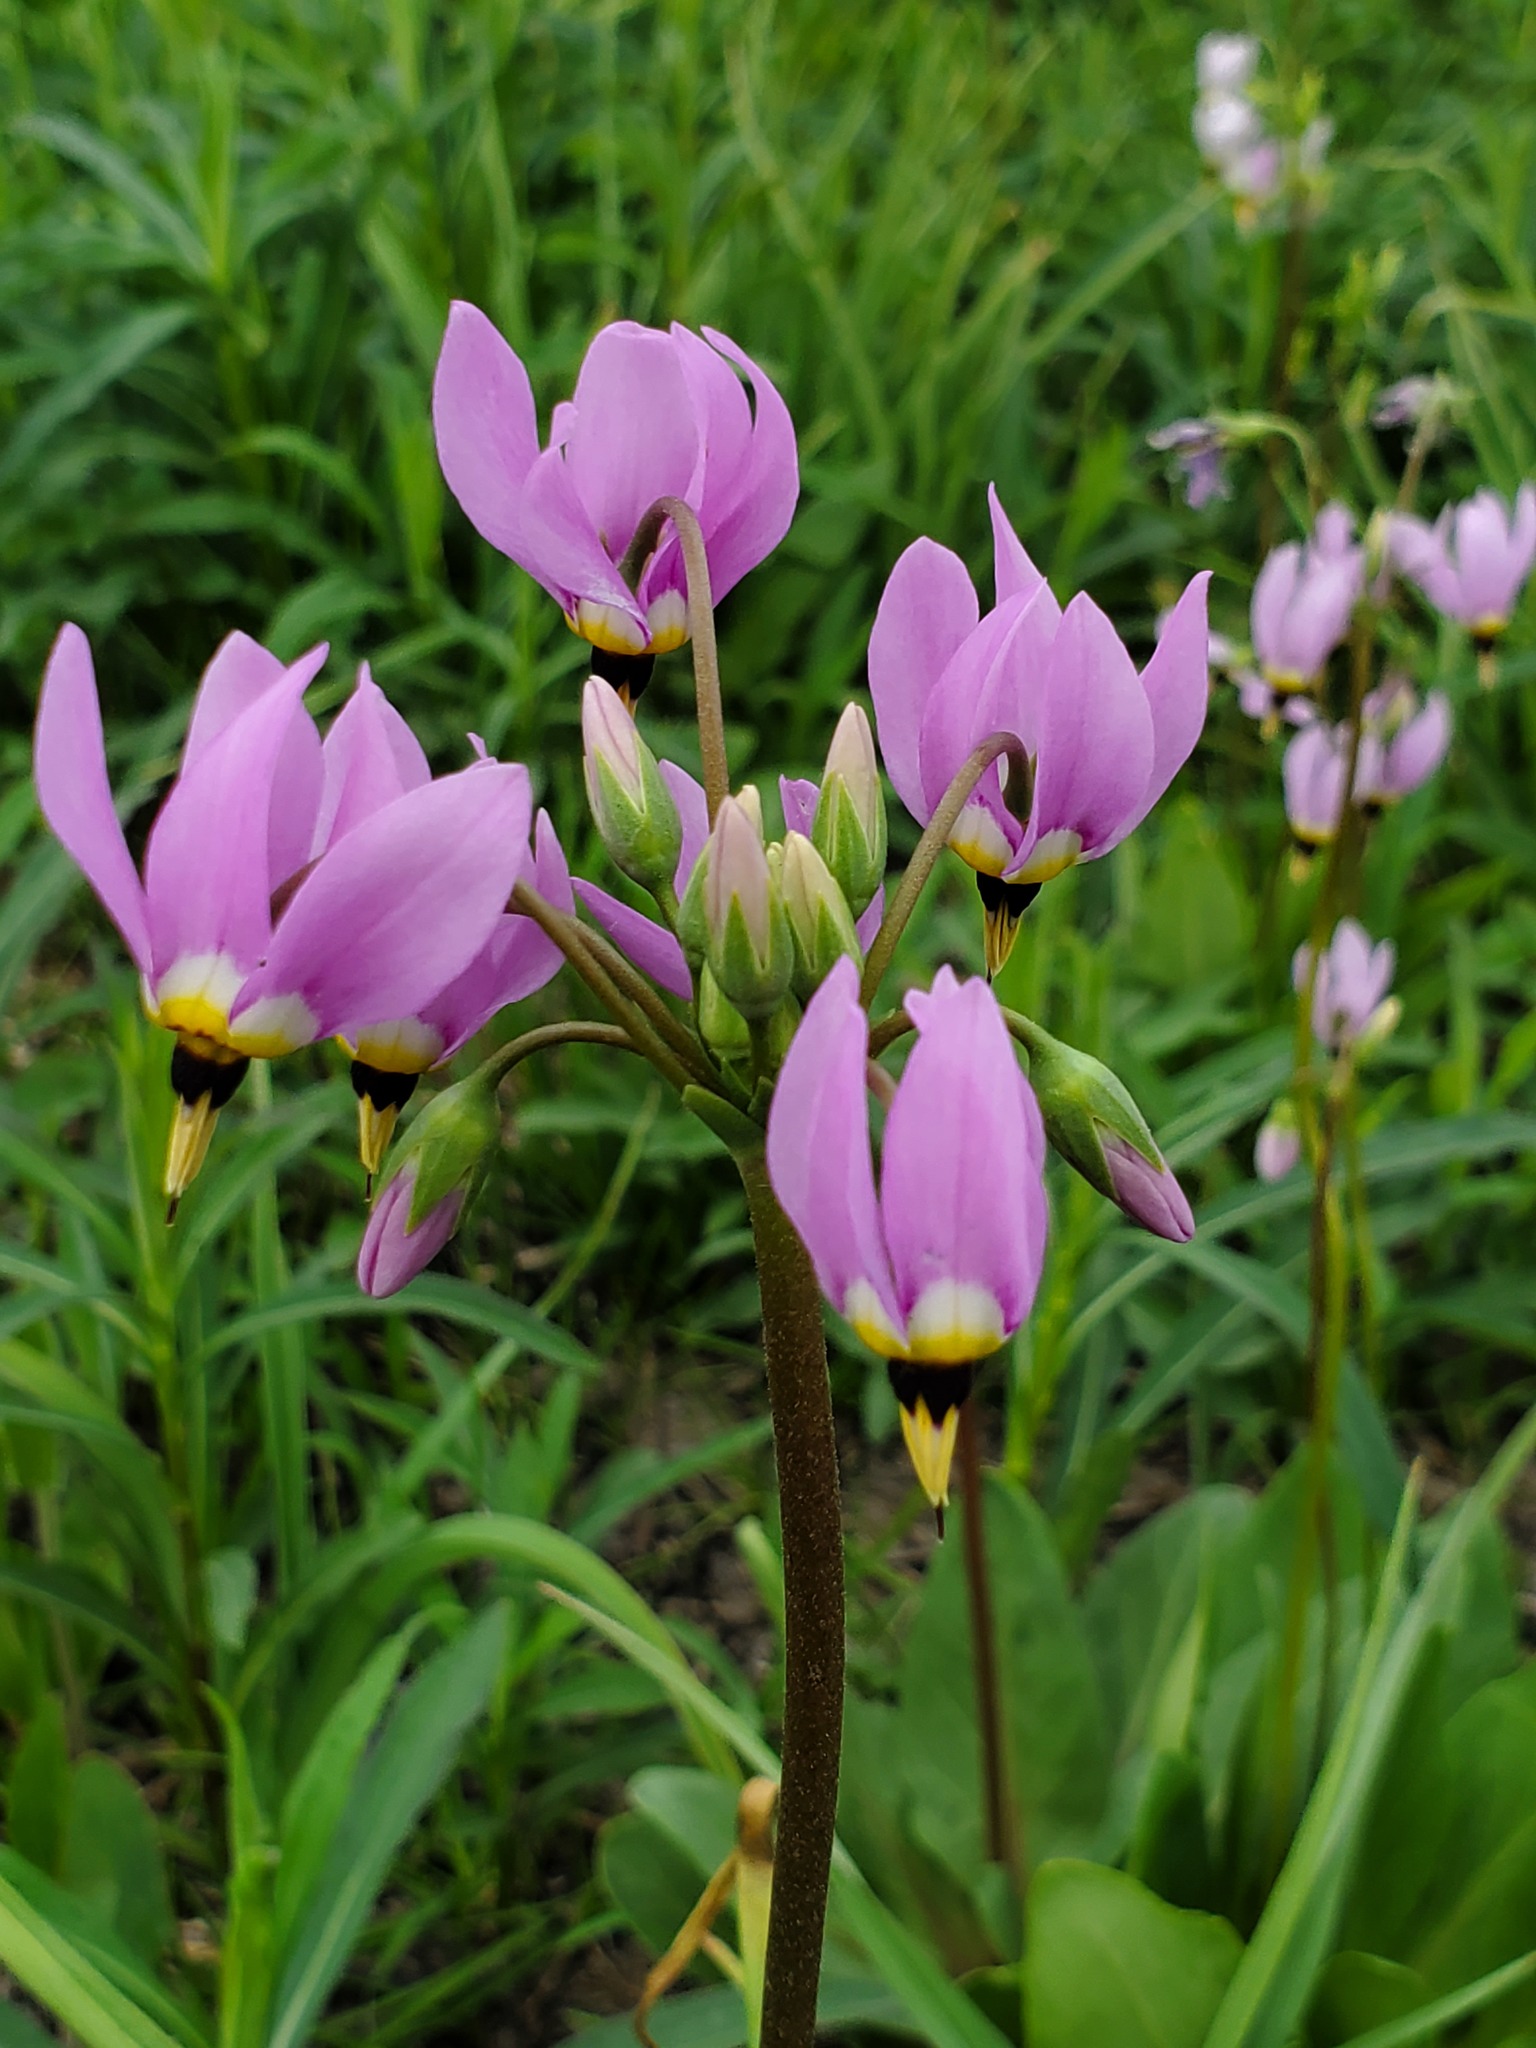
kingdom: Plantae
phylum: Tracheophyta
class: Magnoliopsida
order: Ericales
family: Primulaceae
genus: Dodecatheon
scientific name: Dodecatheon meadia
